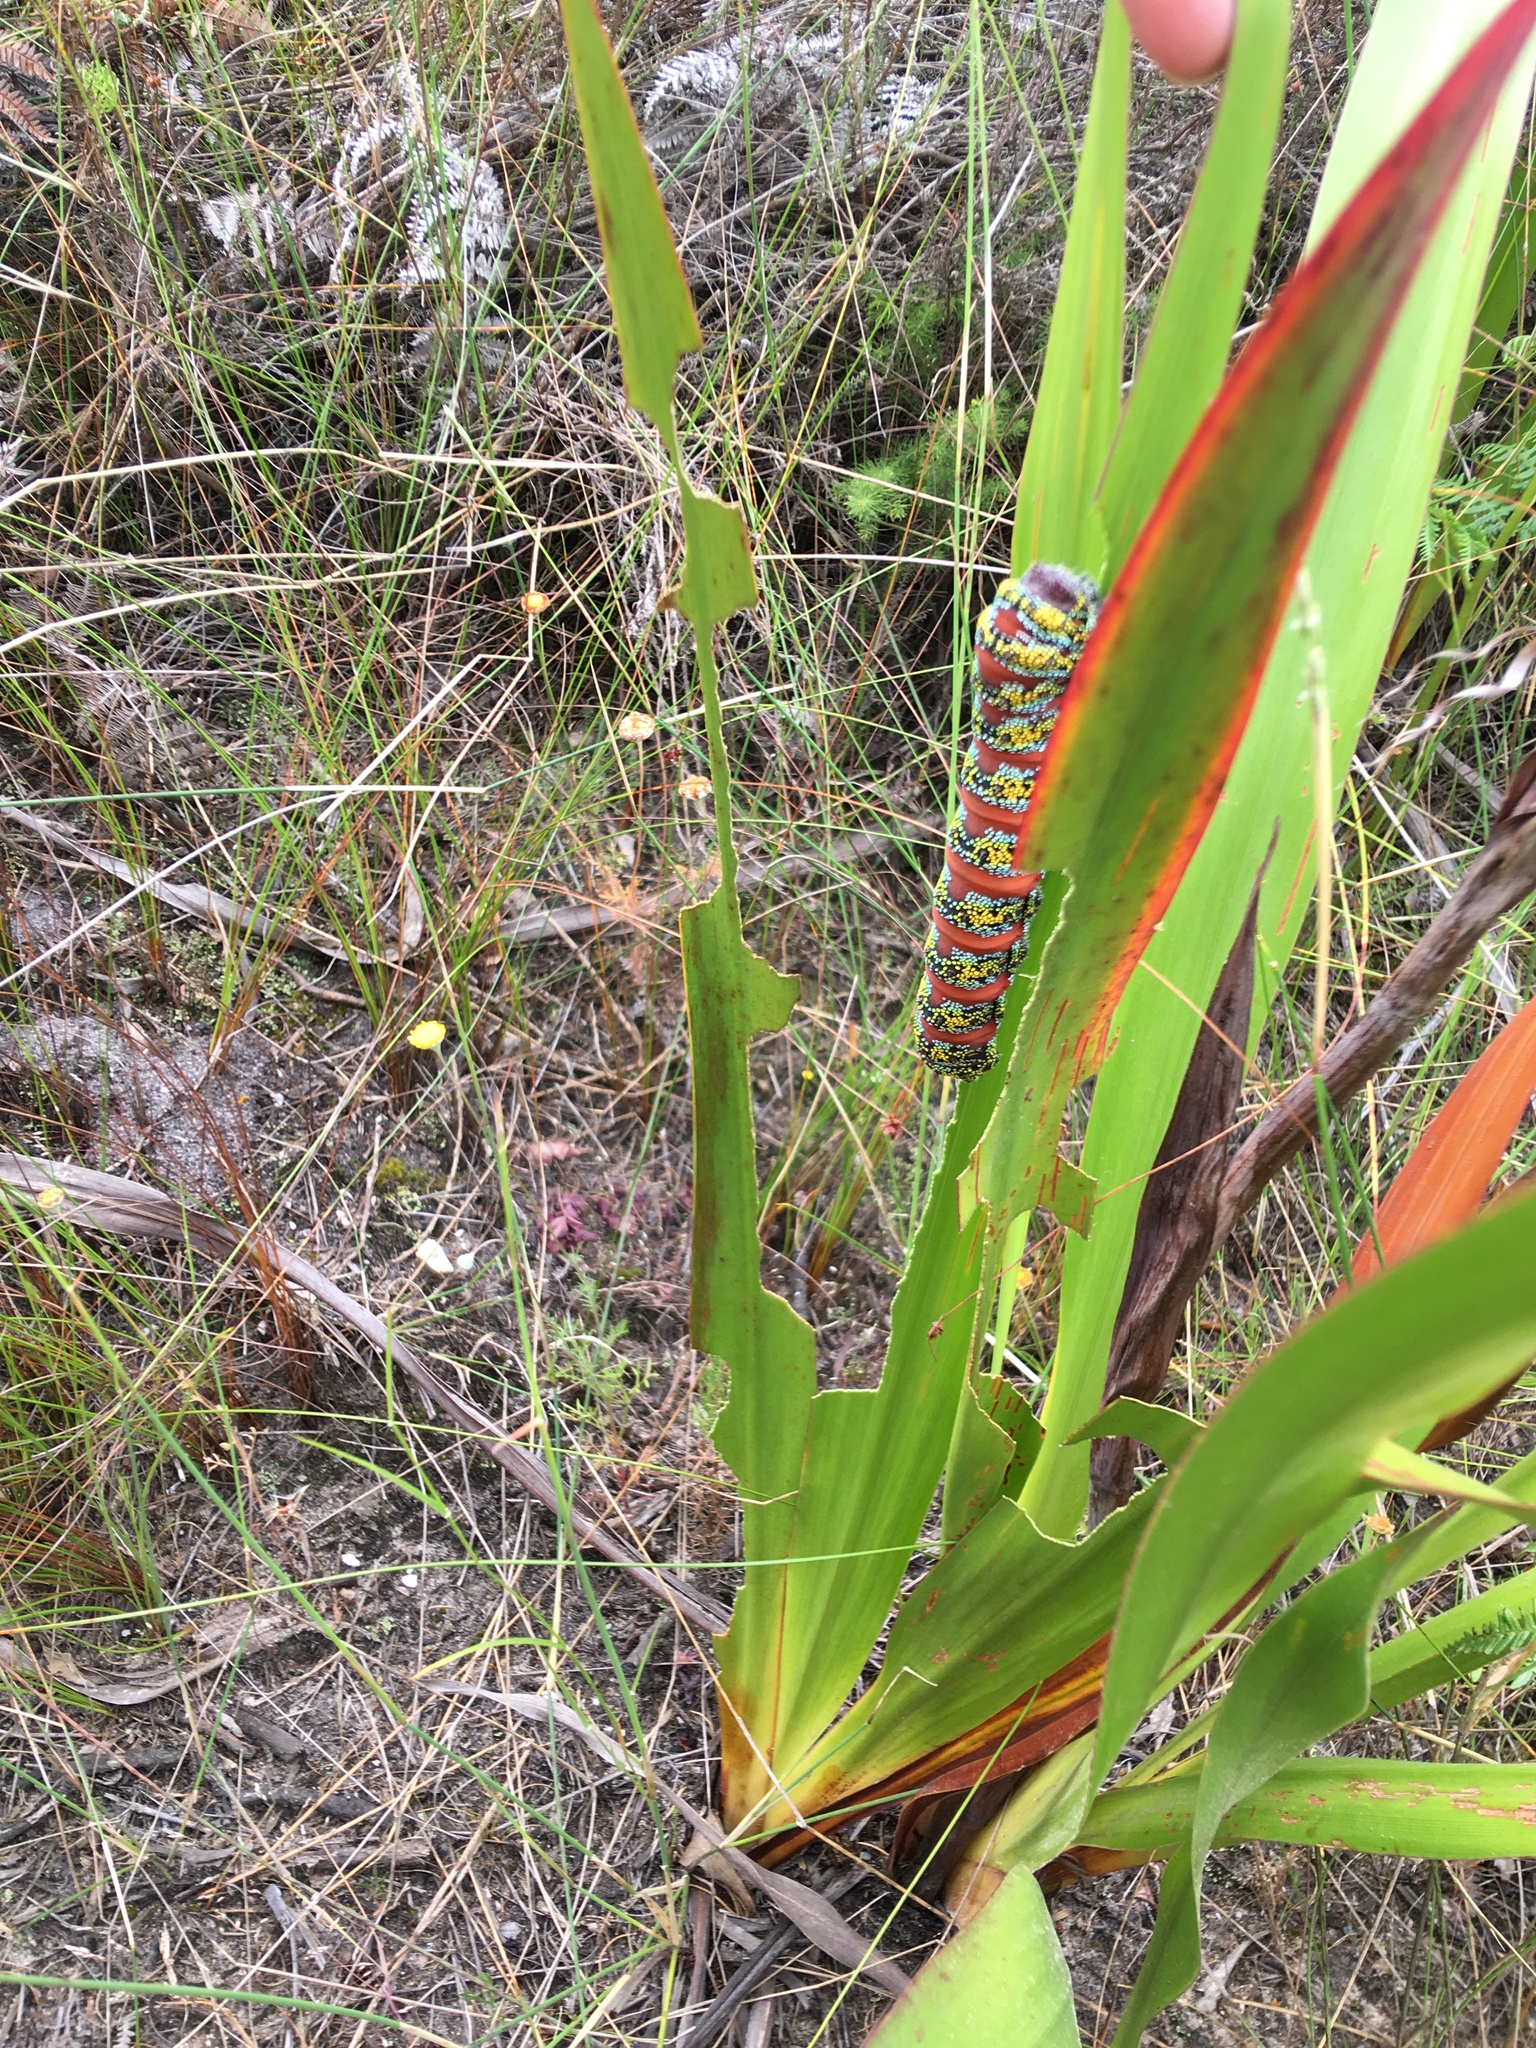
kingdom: Animalia
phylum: Arthropoda
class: Insecta
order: Lepidoptera
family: Saturniidae
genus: Nudaurelia
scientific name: Nudaurelia cytherea
